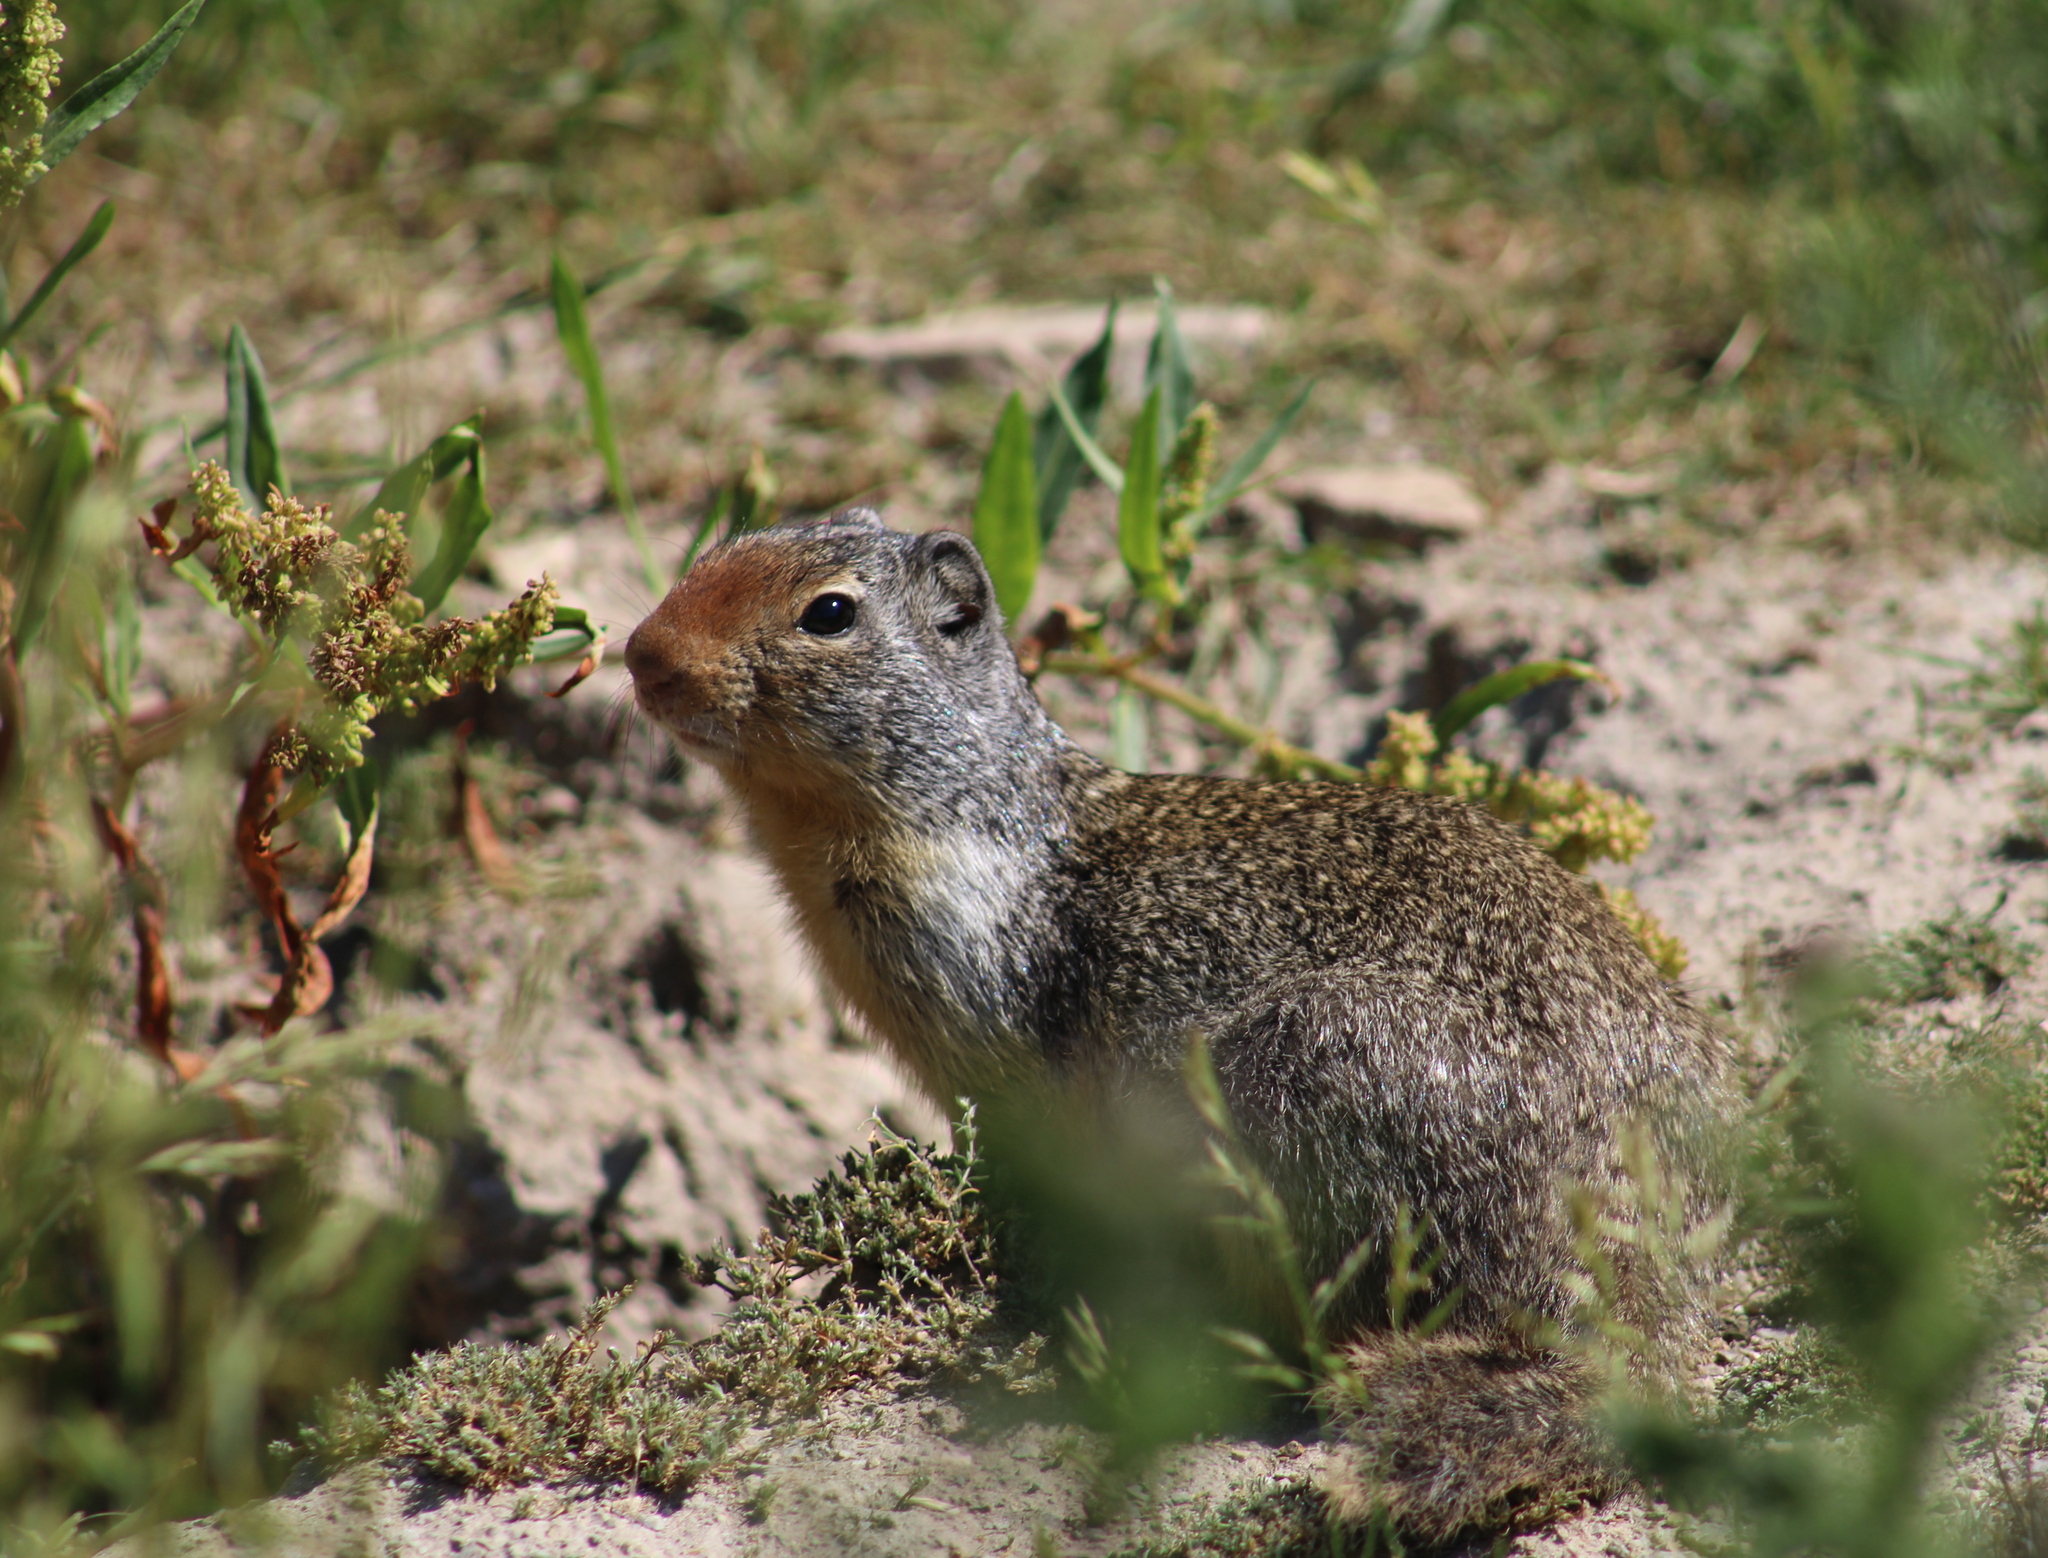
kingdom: Animalia
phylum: Chordata
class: Mammalia
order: Rodentia
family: Sciuridae
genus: Urocitellus
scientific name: Urocitellus columbianus
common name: Columbian ground squirrel
